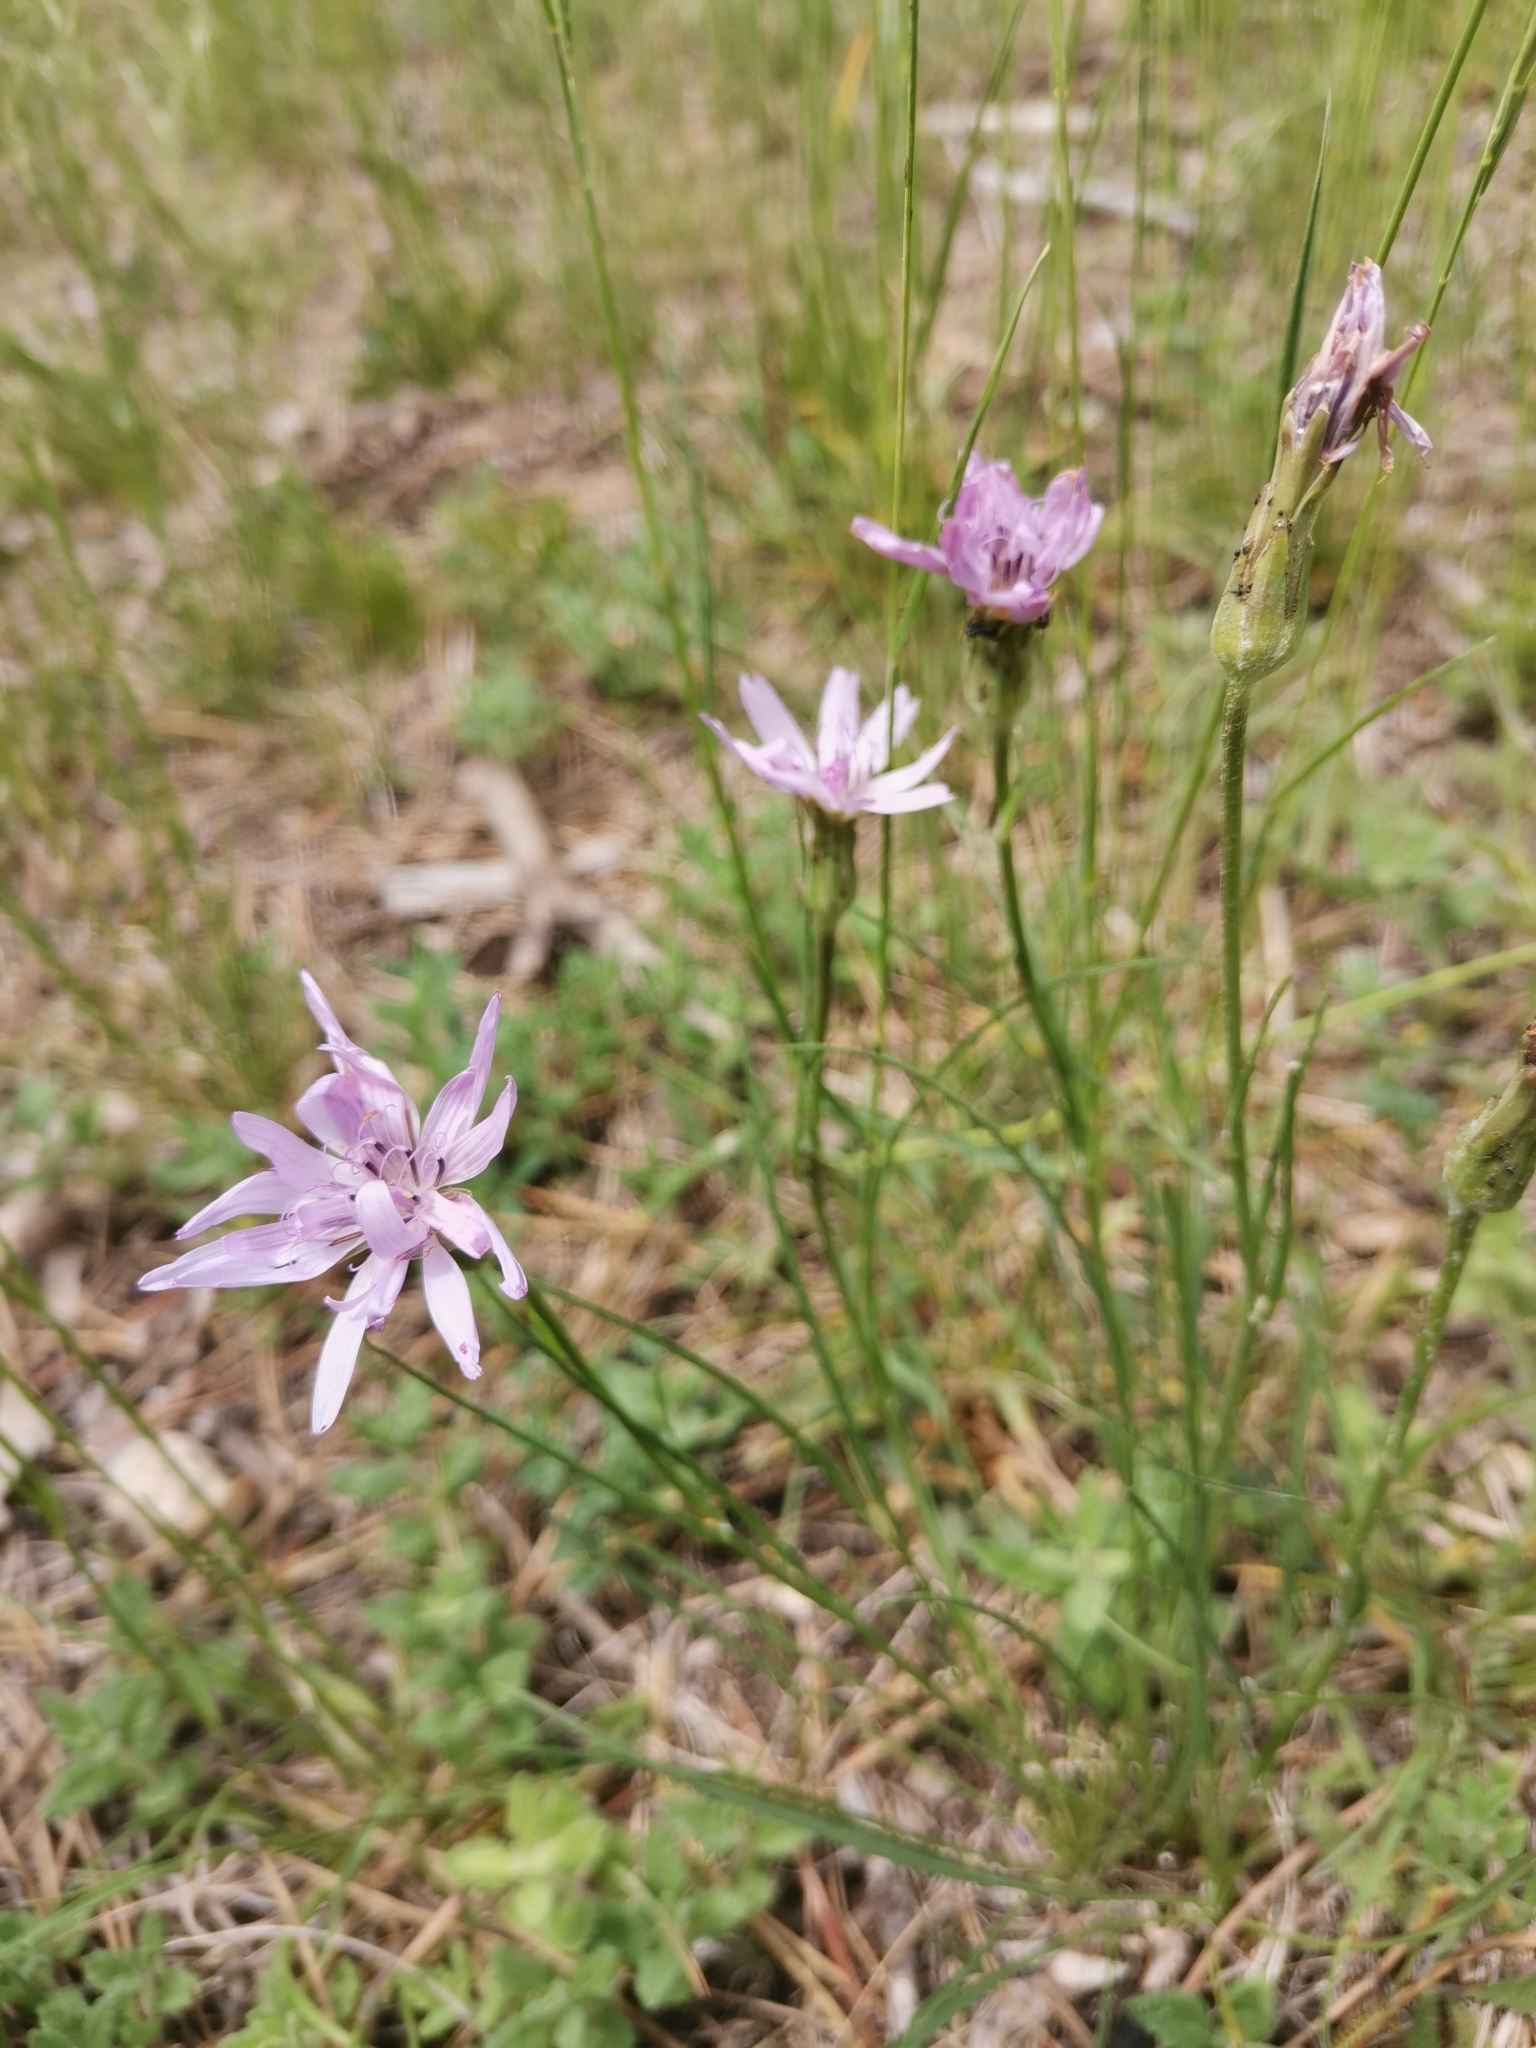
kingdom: Plantae
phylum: Tracheophyta
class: Magnoliopsida
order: Asterales
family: Asteraceae
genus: Scorzonera
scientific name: Scorzonera purpurea
